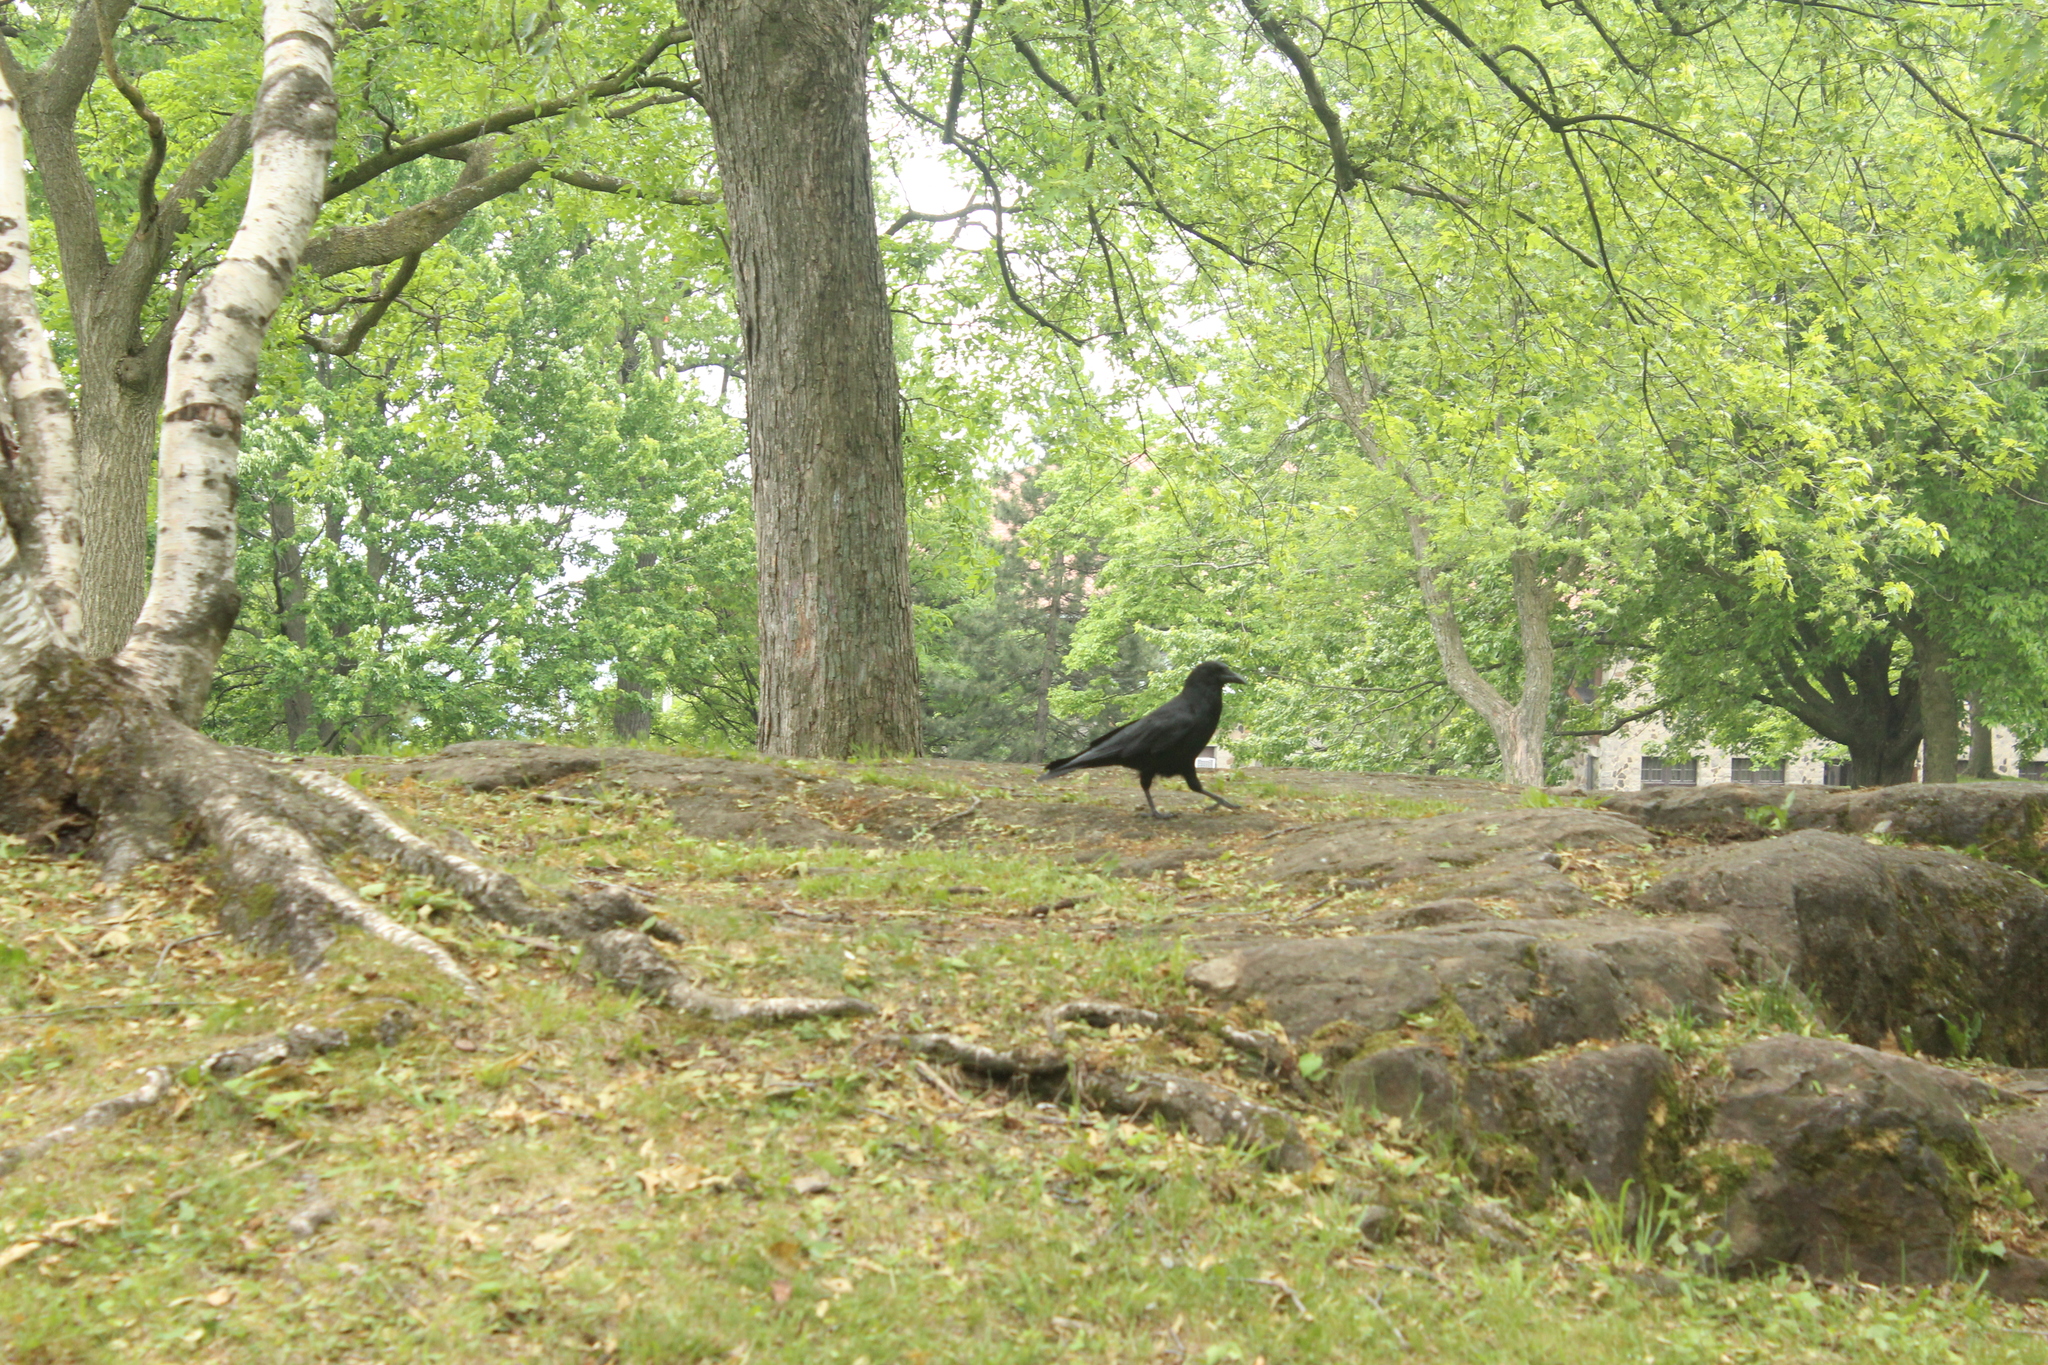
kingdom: Animalia
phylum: Chordata
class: Aves
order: Passeriformes
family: Corvidae
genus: Corvus
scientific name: Corvus brachyrhynchos
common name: American crow
